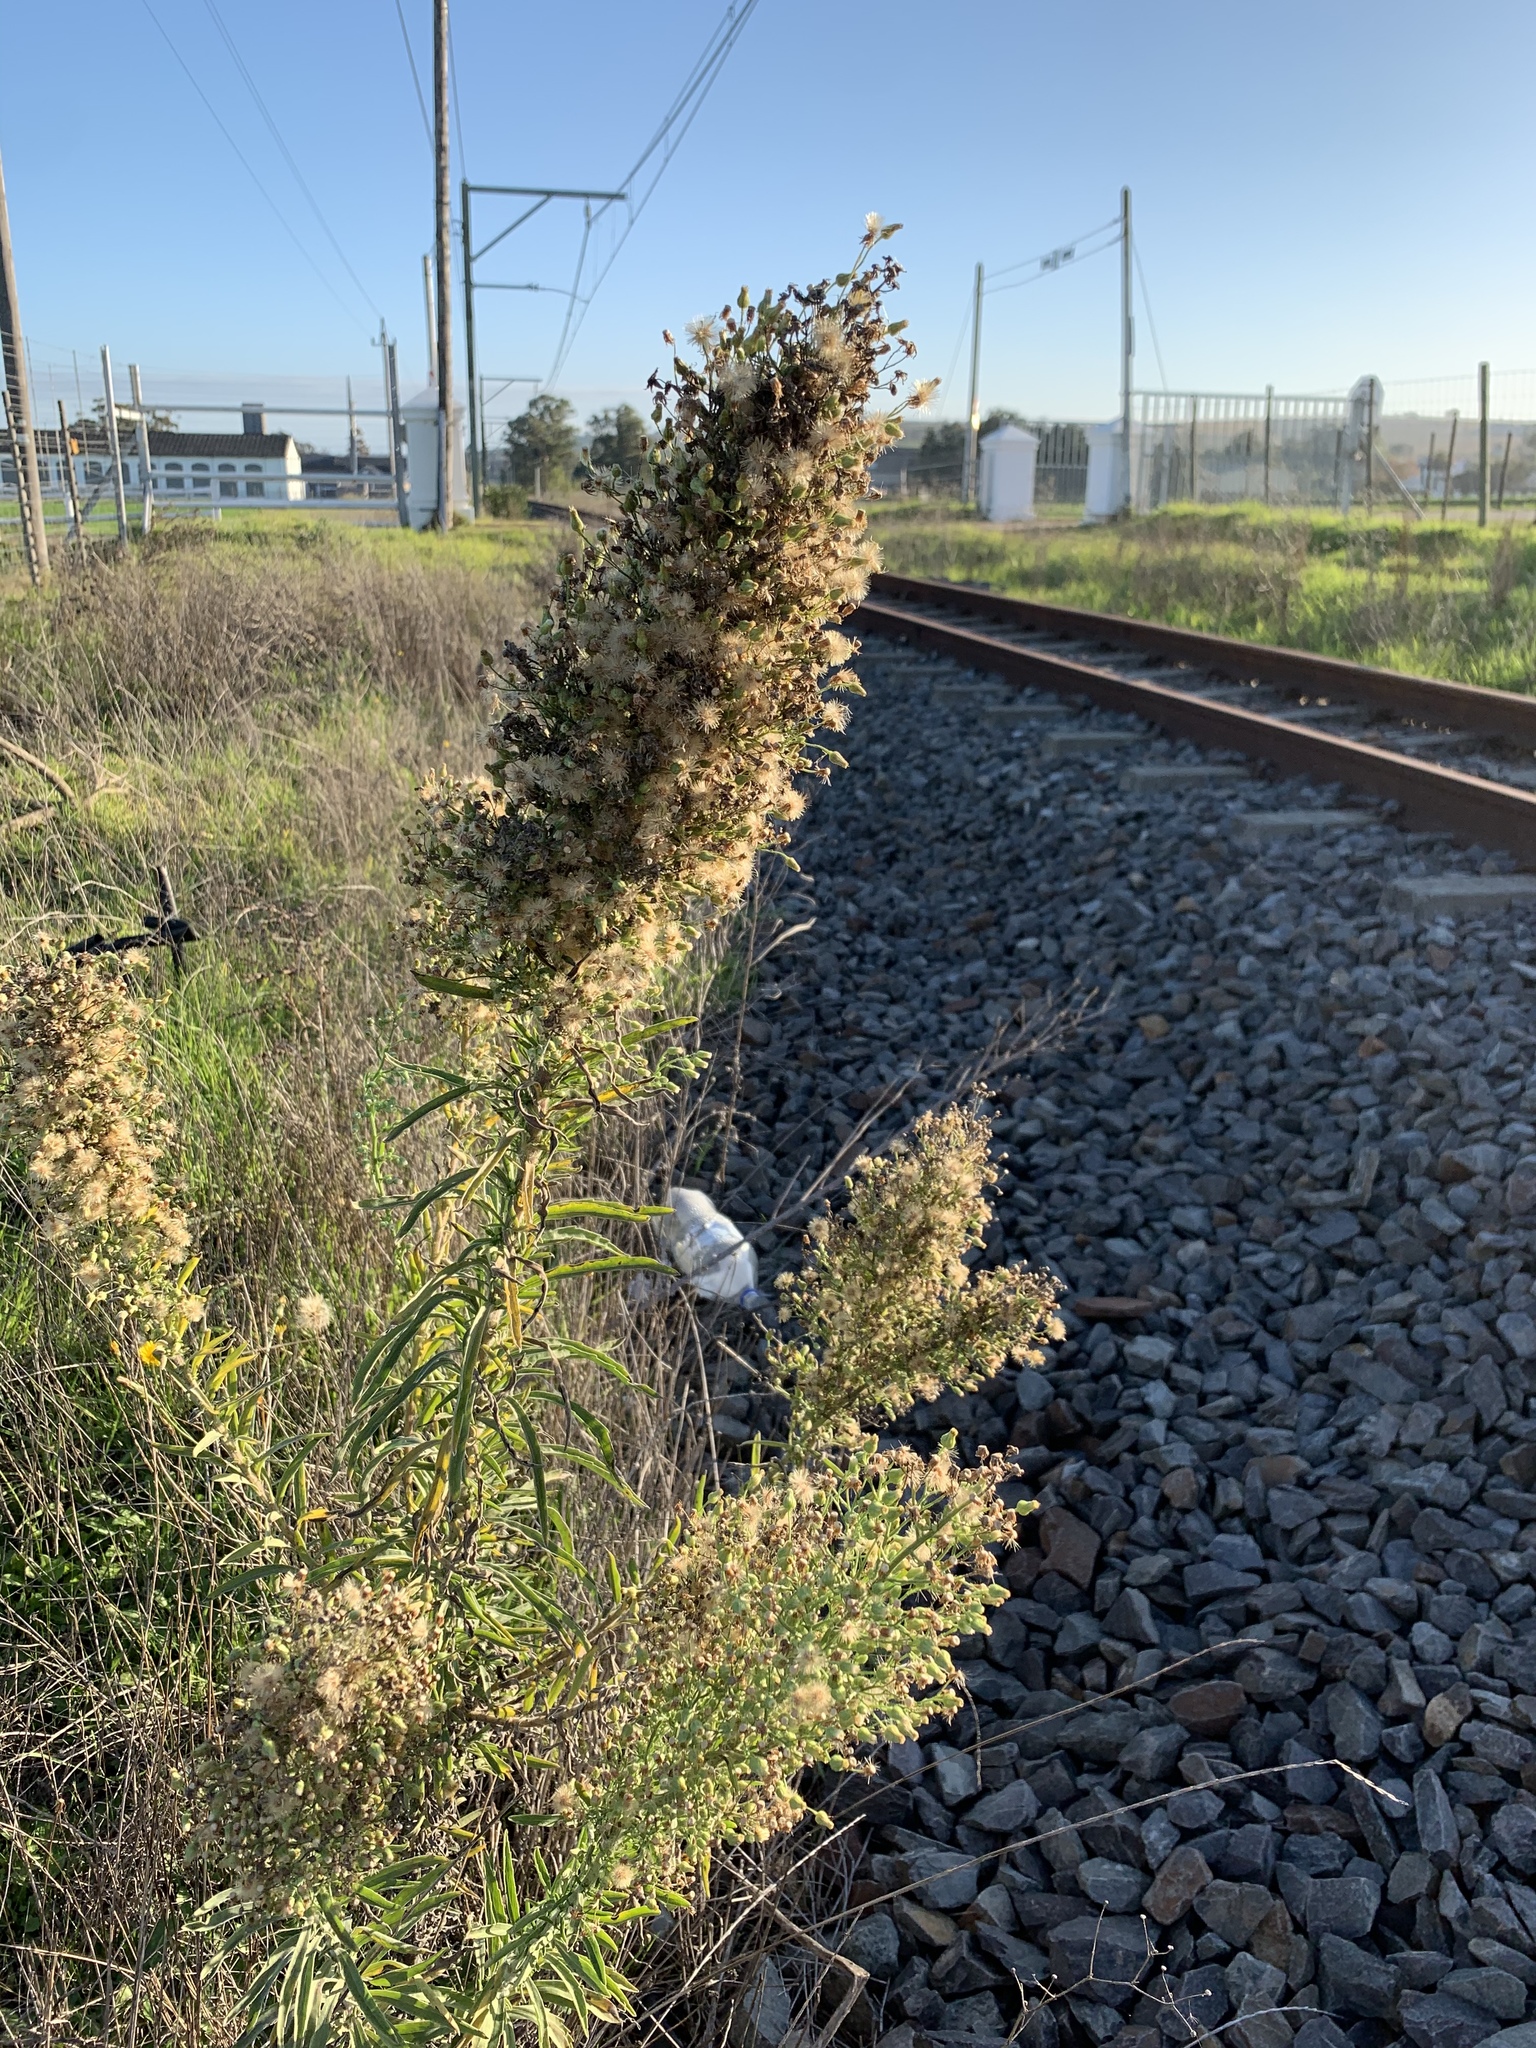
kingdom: Plantae
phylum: Tracheophyta
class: Magnoliopsida
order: Asterales
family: Asteraceae
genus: Erigeron
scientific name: Erigeron sumatrensis
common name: Daisy
